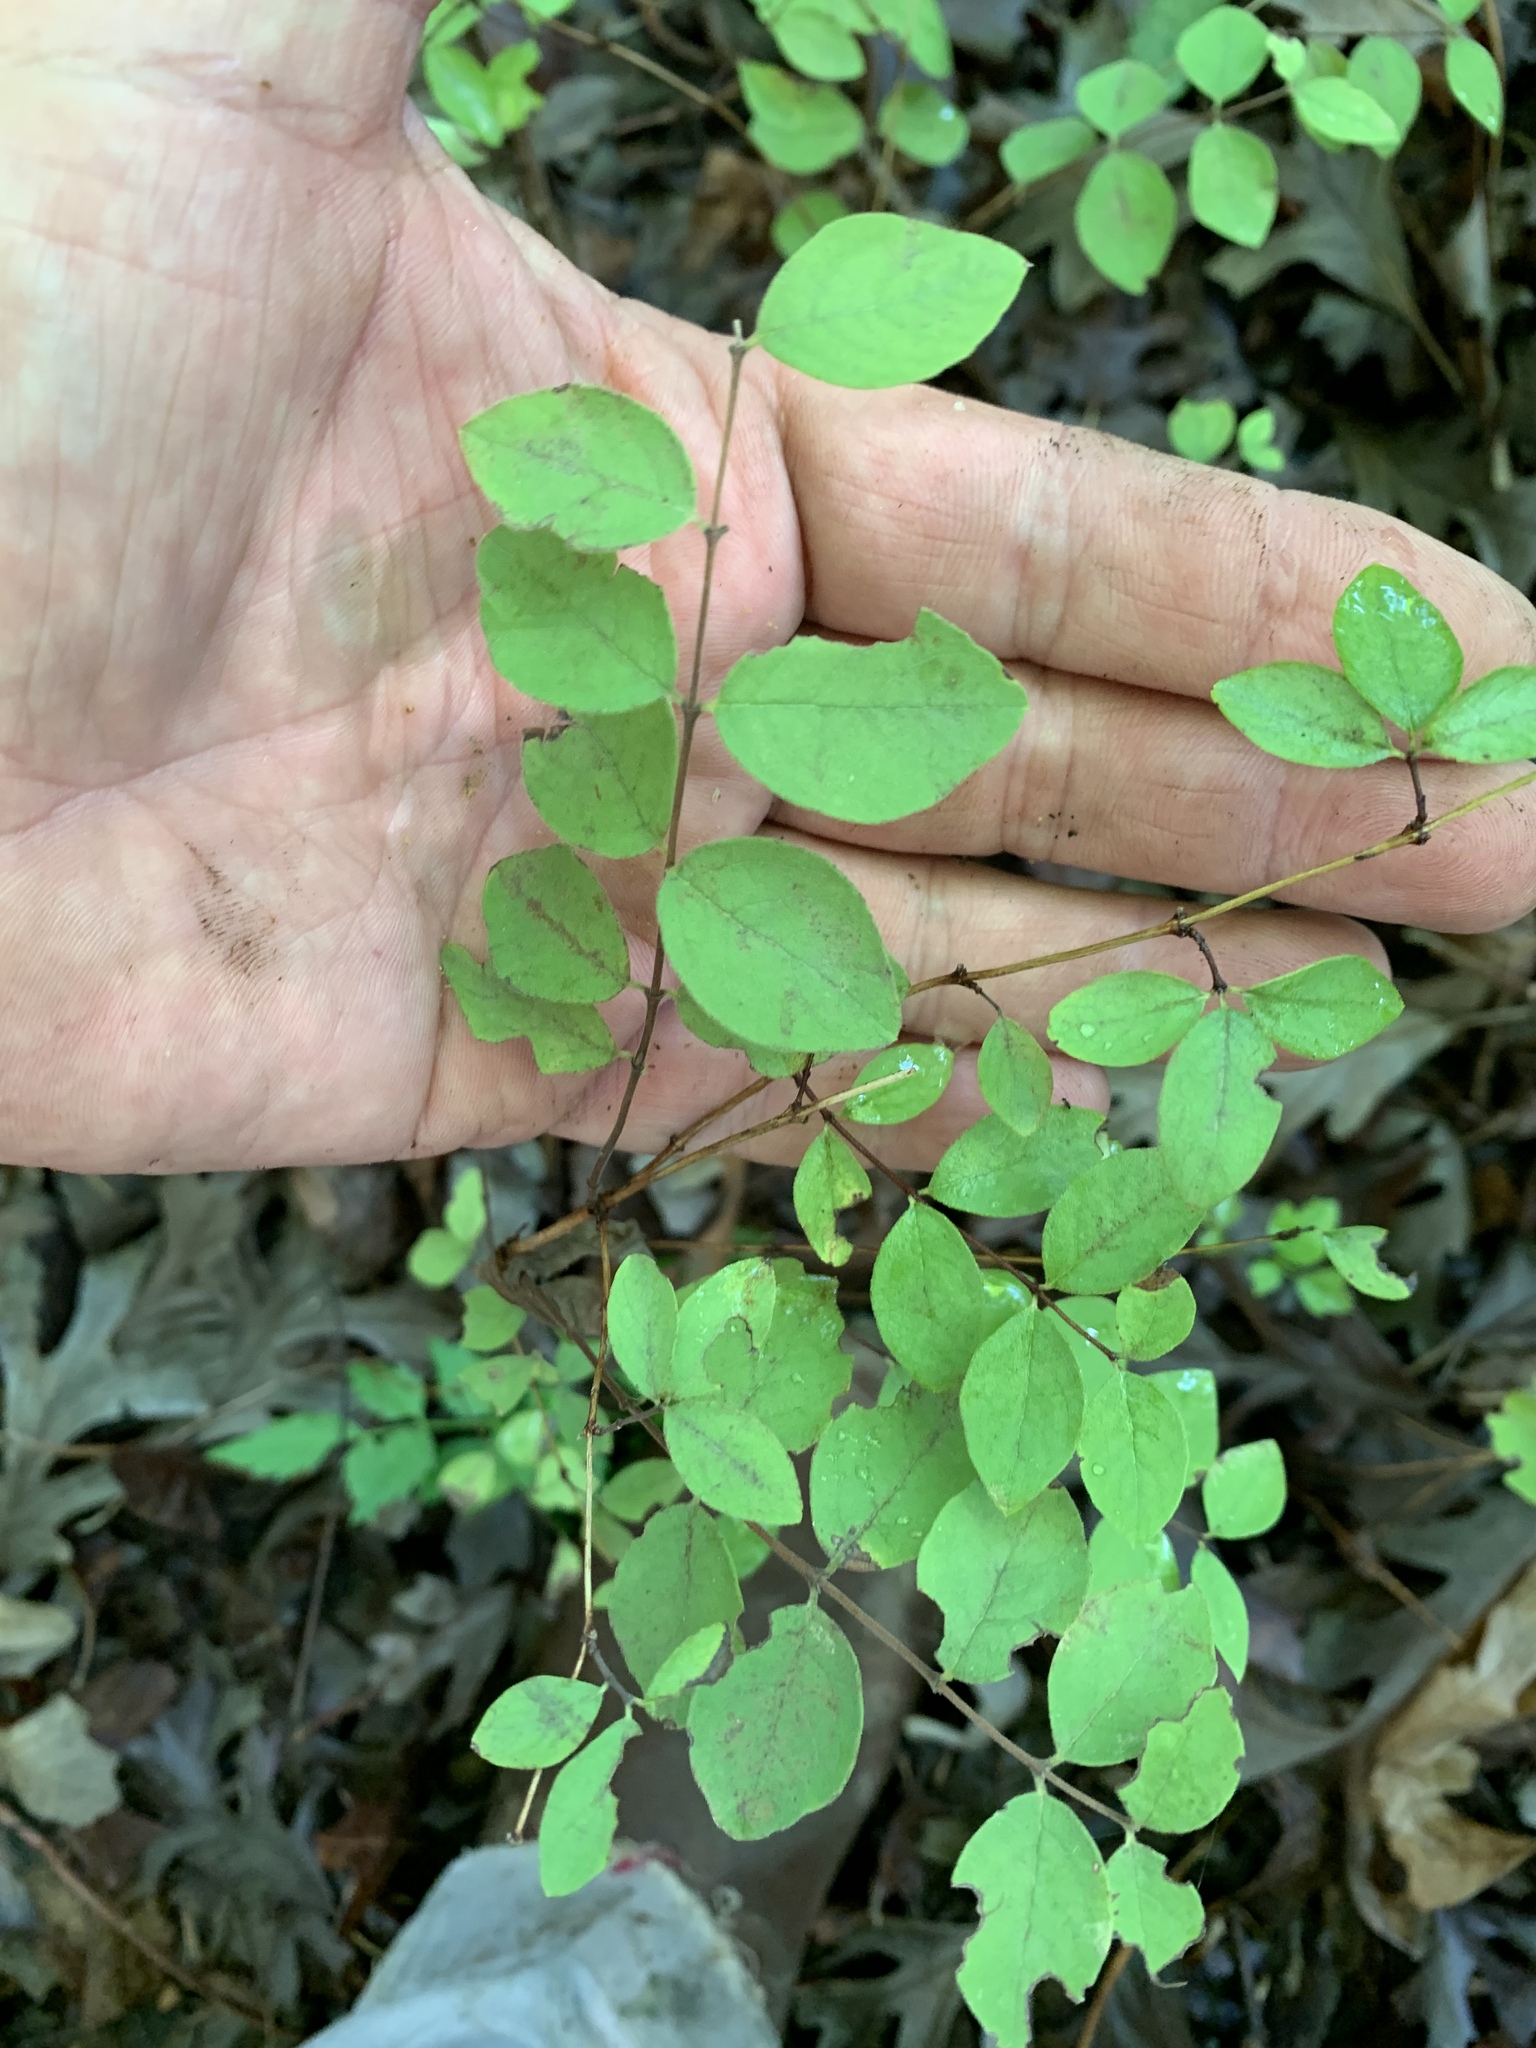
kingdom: Plantae
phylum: Tracheophyta
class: Magnoliopsida
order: Dipsacales
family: Caprifoliaceae
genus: Symphoricarpos
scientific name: Symphoricarpos orbiculatus
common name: Coralberry
